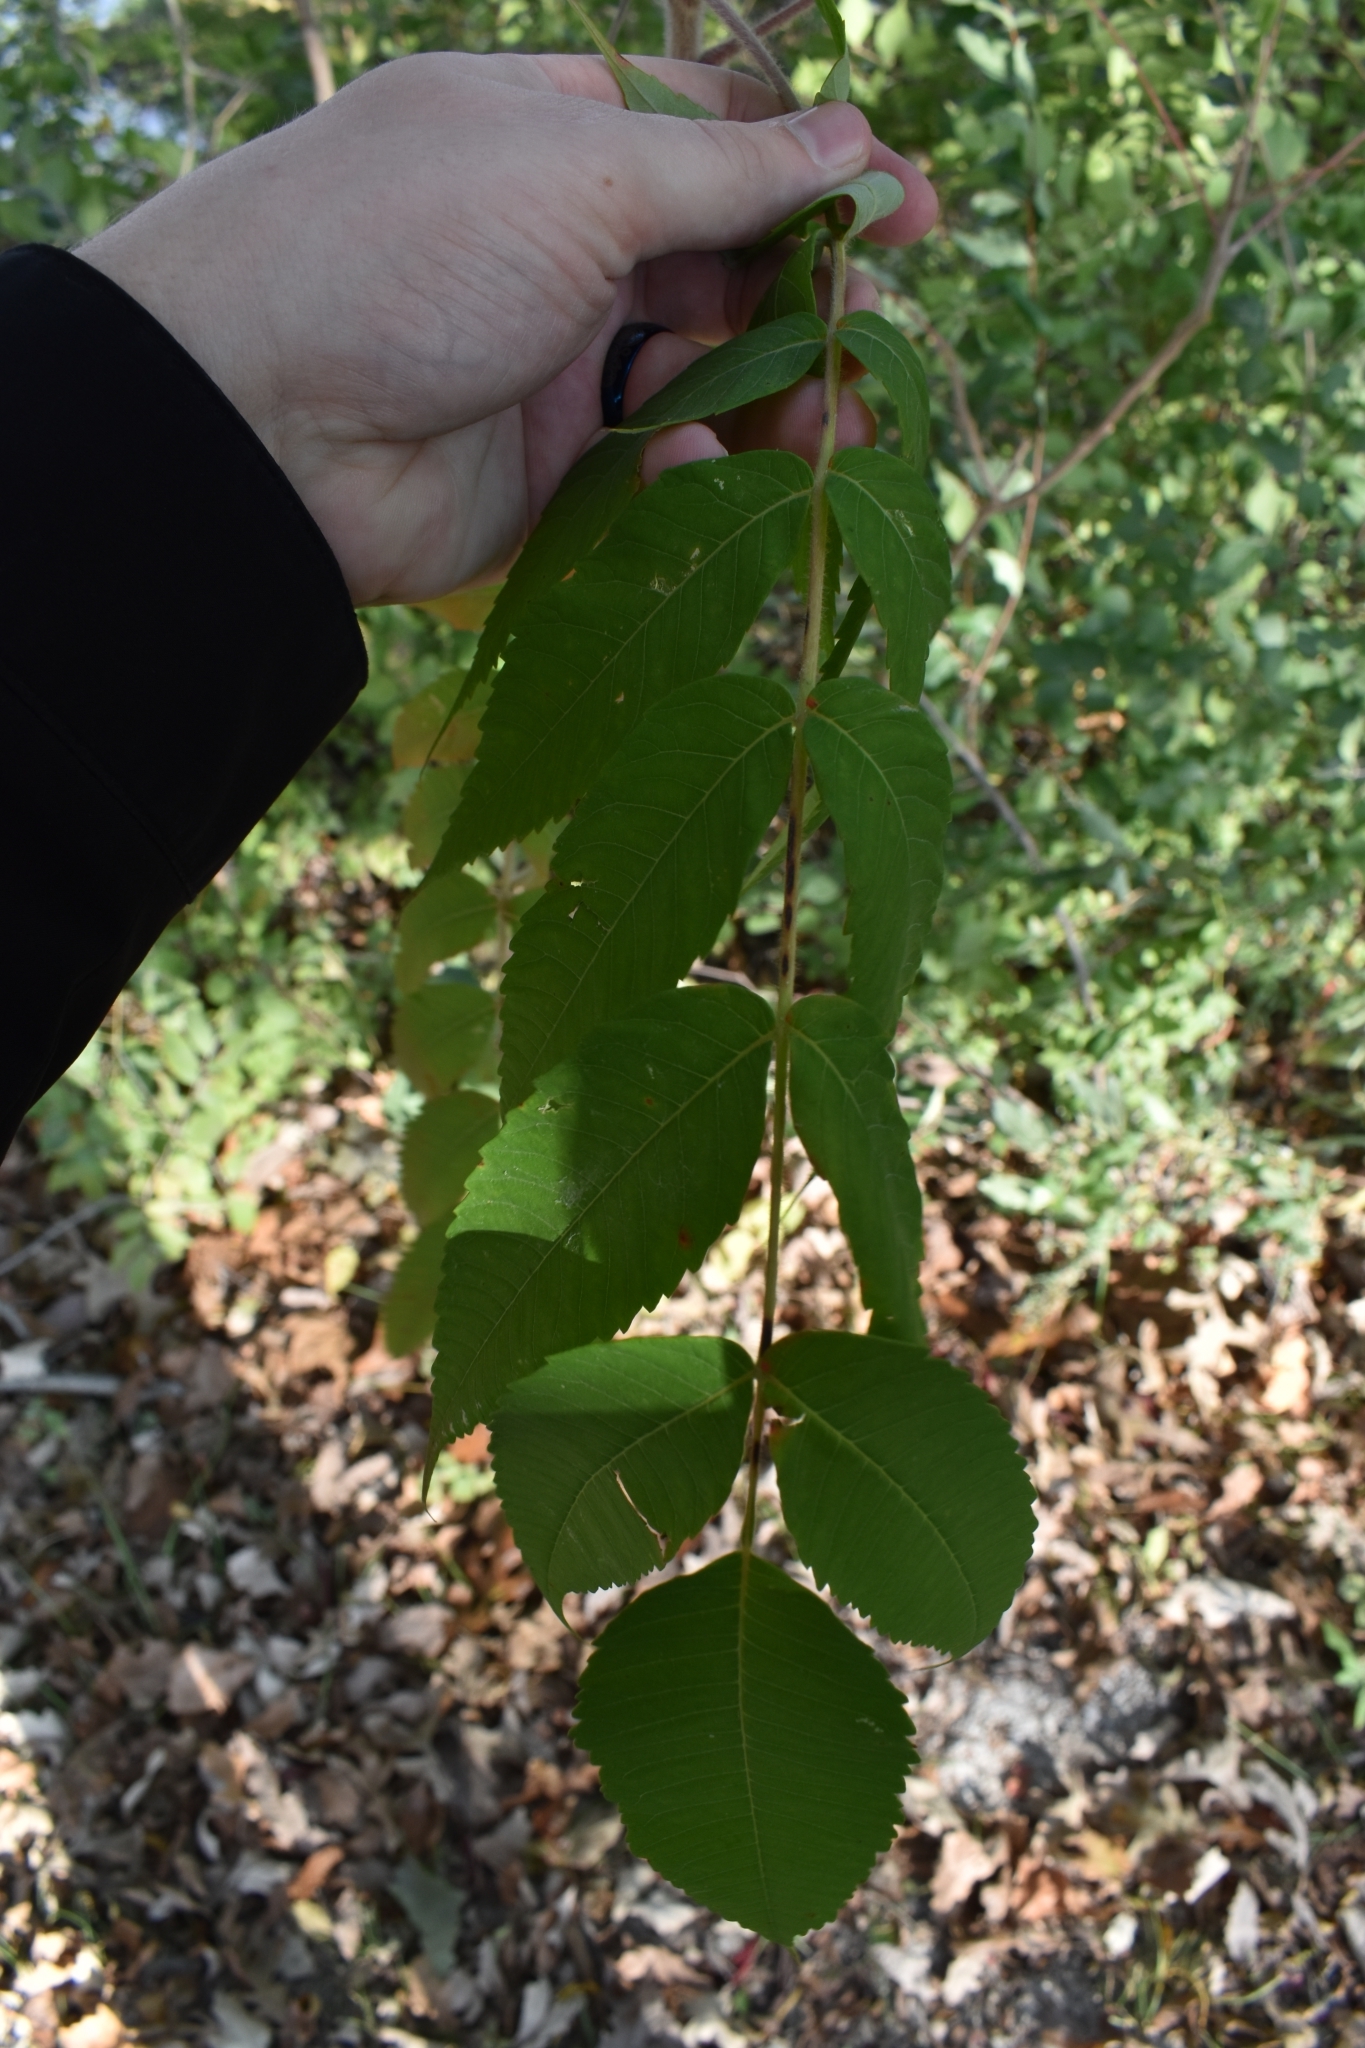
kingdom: Plantae
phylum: Tracheophyta
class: Magnoliopsida
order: Sapindales
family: Anacardiaceae
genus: Rhus
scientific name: Rhus typhina
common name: Staghorn sumac
